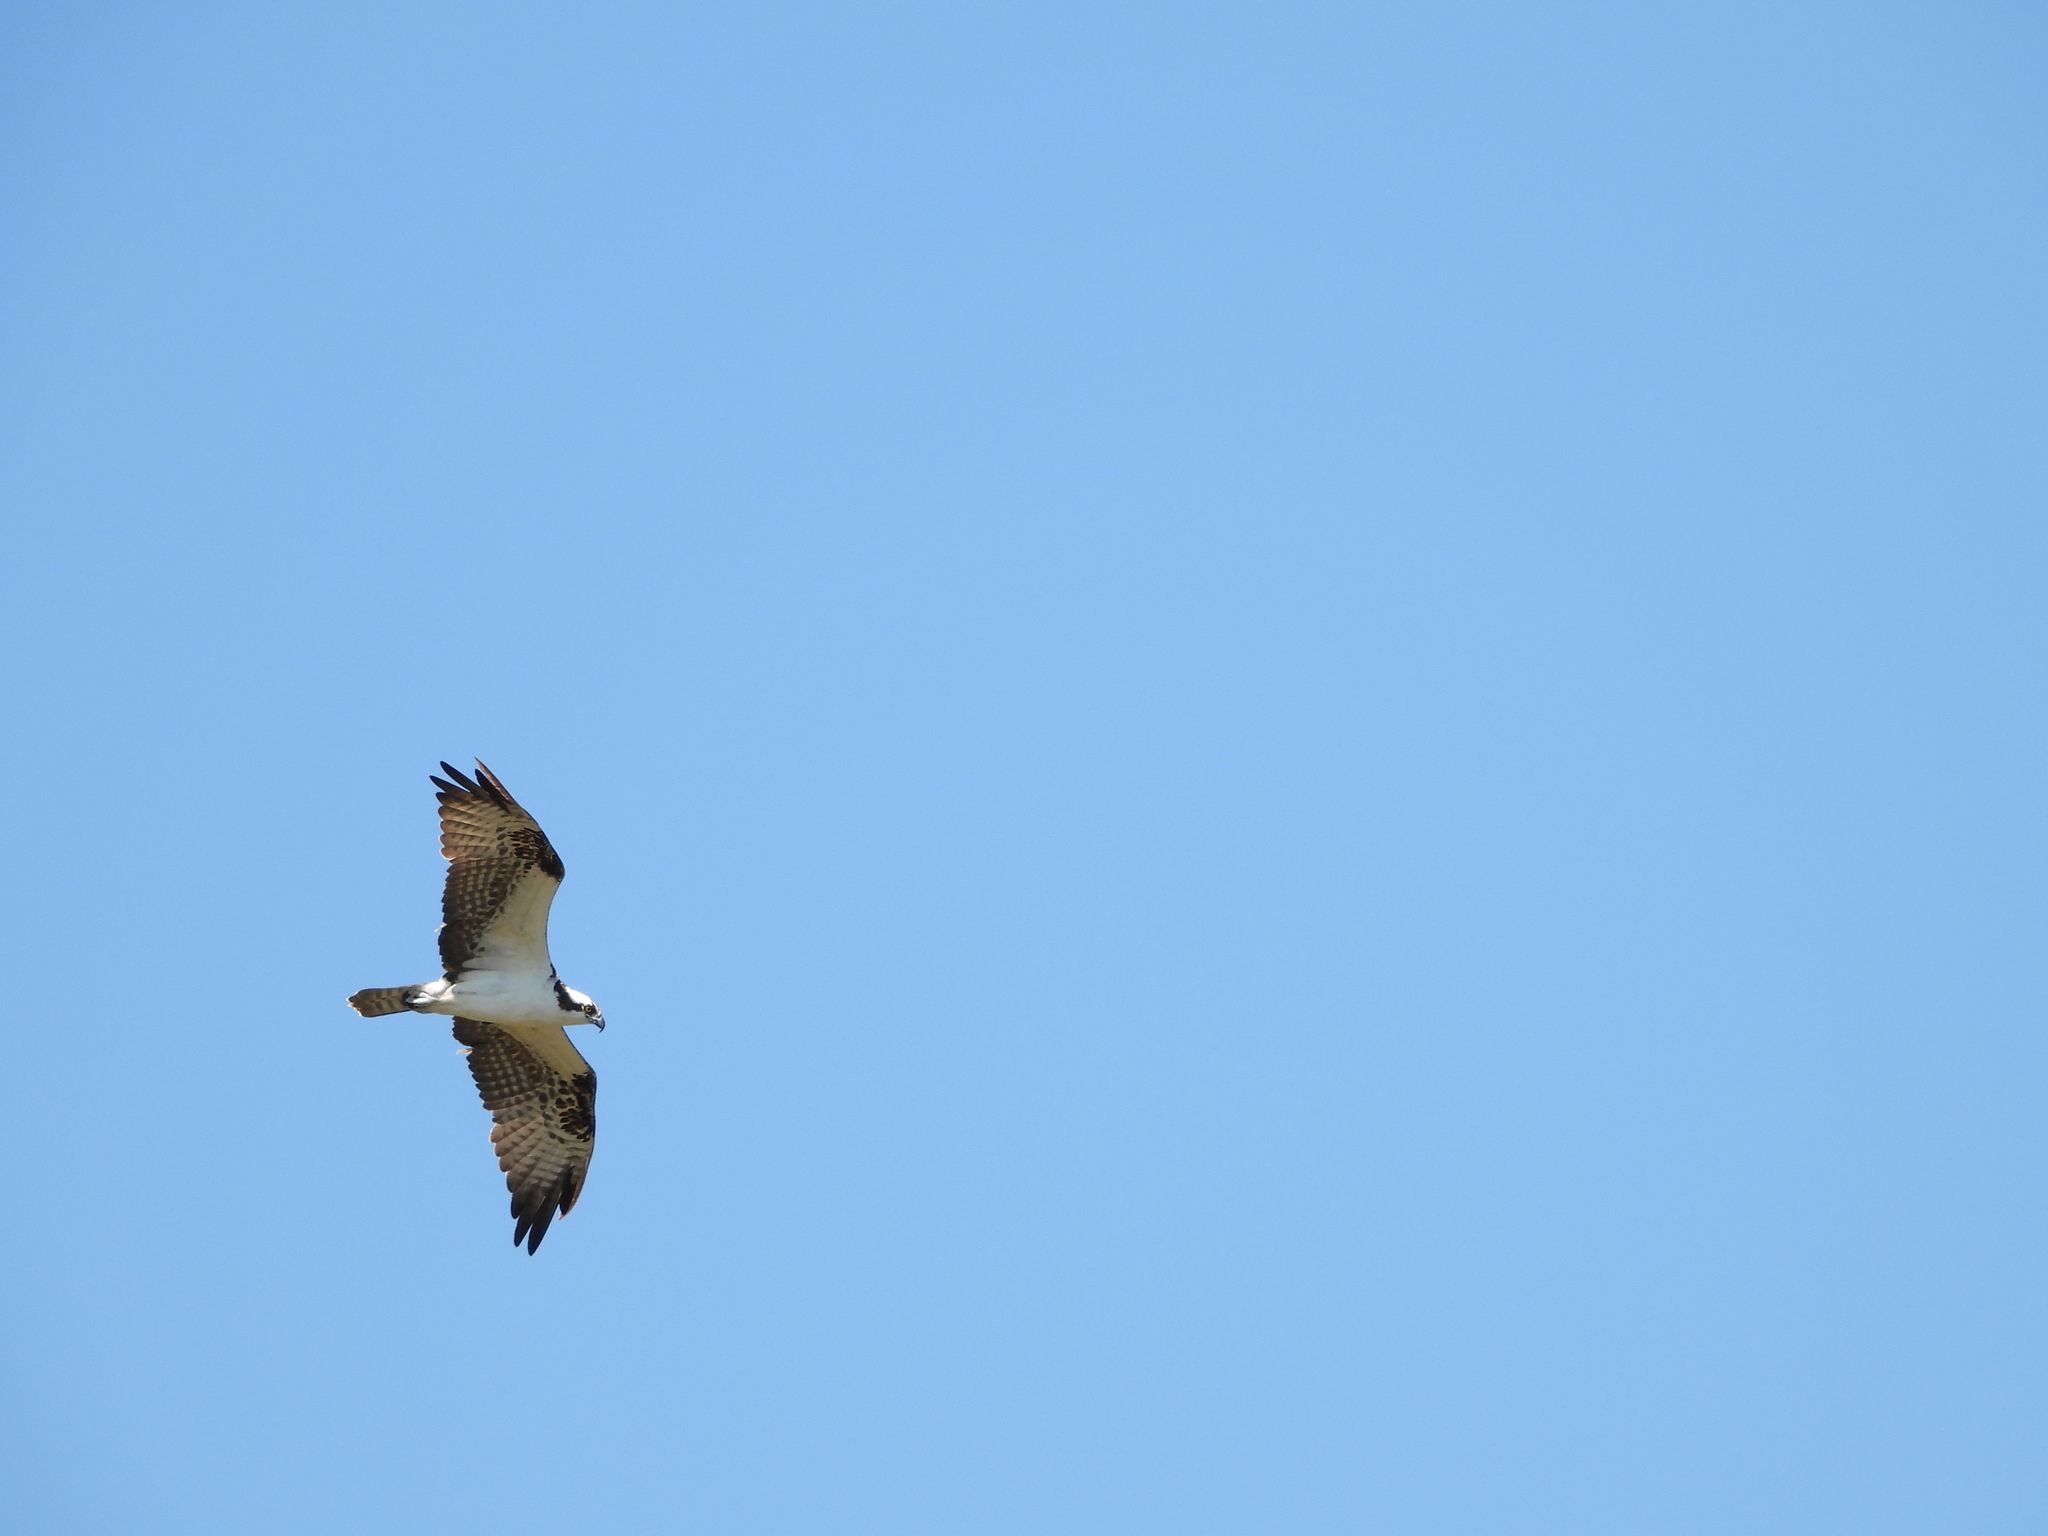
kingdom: Animalia
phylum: Chordata
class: Aves
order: Accipitriformes
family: Pandionidae
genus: Pandion
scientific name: Pandion haliaetus
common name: Osprey
